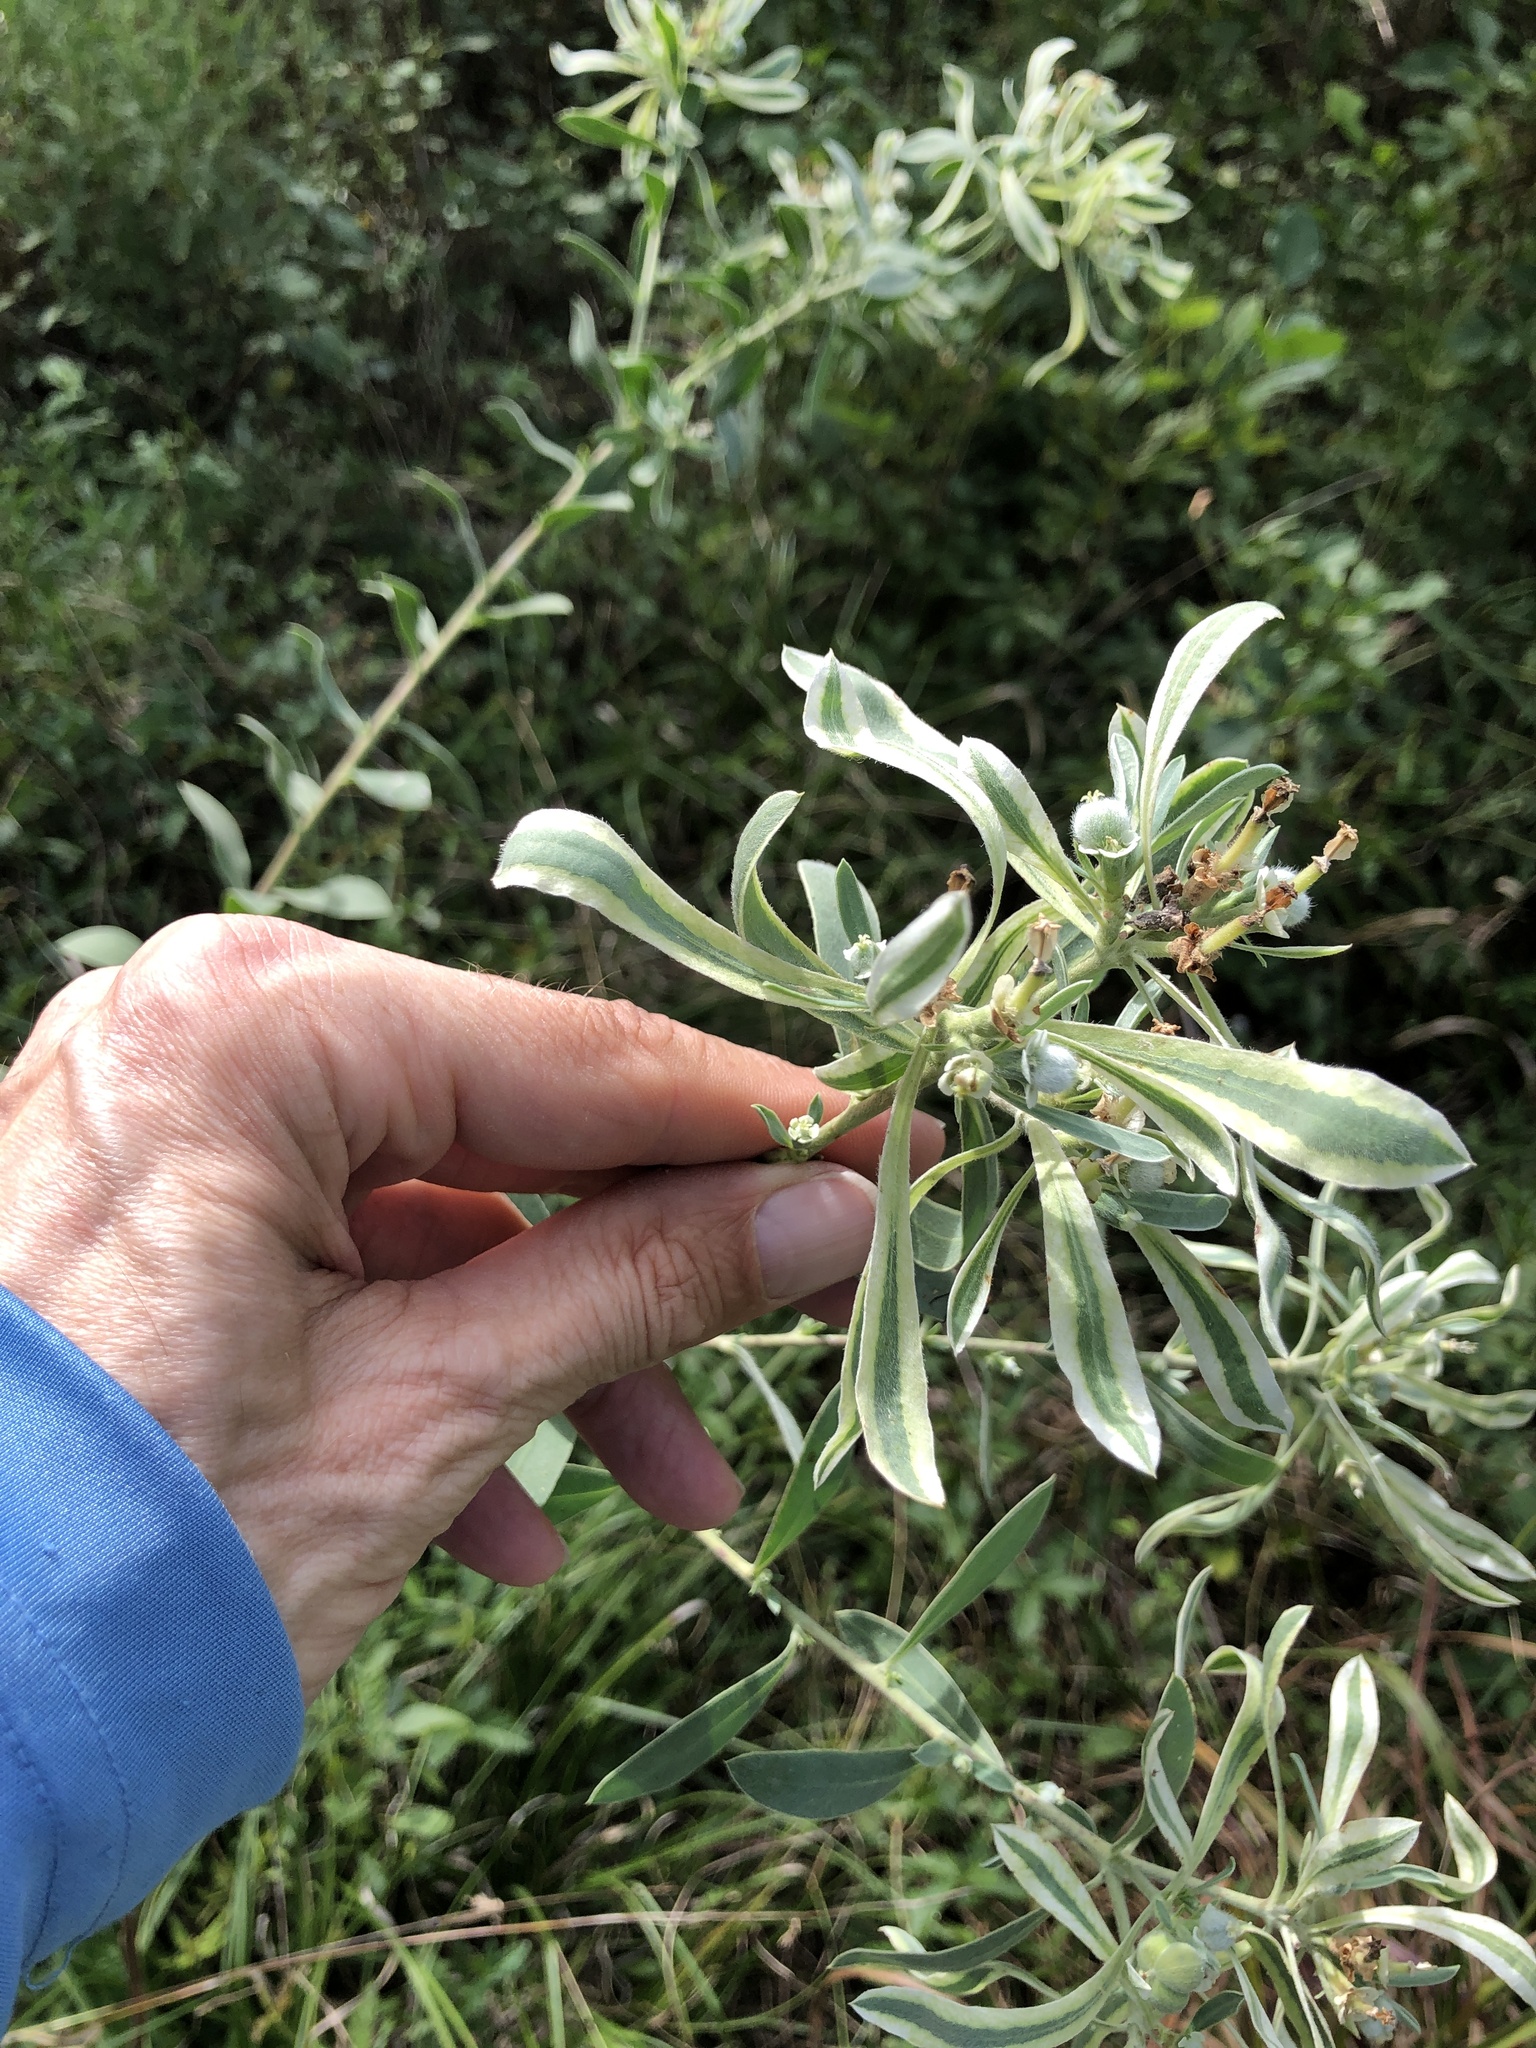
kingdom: Plantae
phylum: Tracheophyta
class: Magnoliopsida
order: Malpighiales
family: Euphorbiaceae
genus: Euphorbia
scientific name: Euphorbia bicolor
